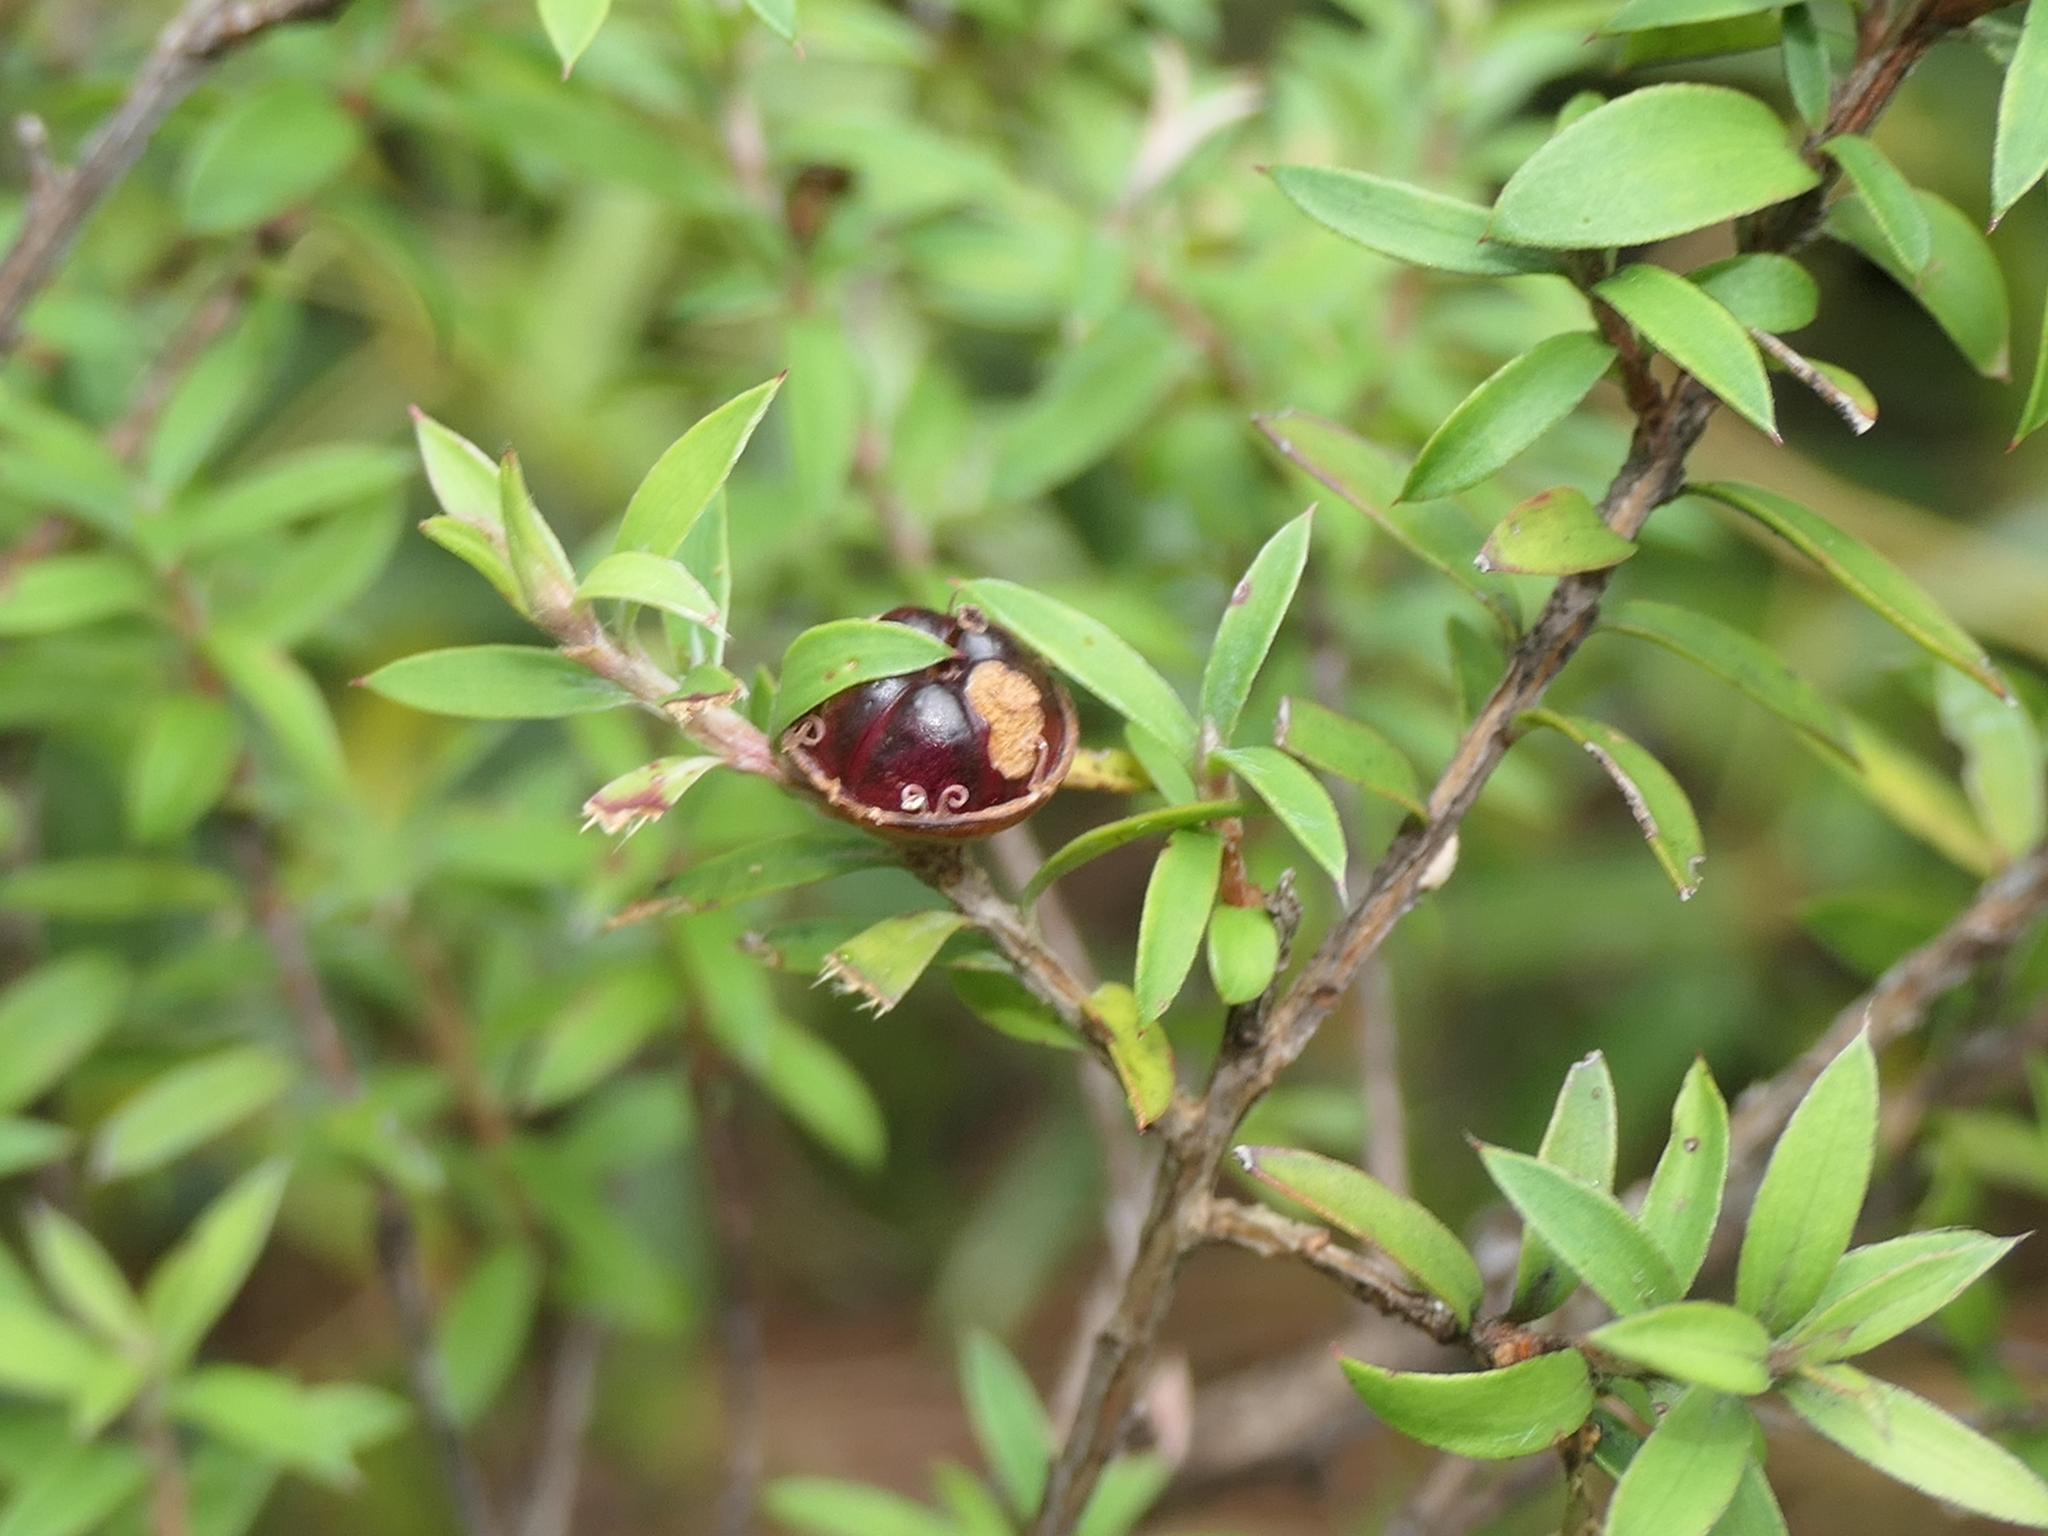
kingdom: Plantae
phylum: Tracheophyta
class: Magnoliopsida
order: Myrtales
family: Myrtaceae
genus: Leptospermum
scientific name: Leptospermum scoparium
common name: Broom tea-tree
